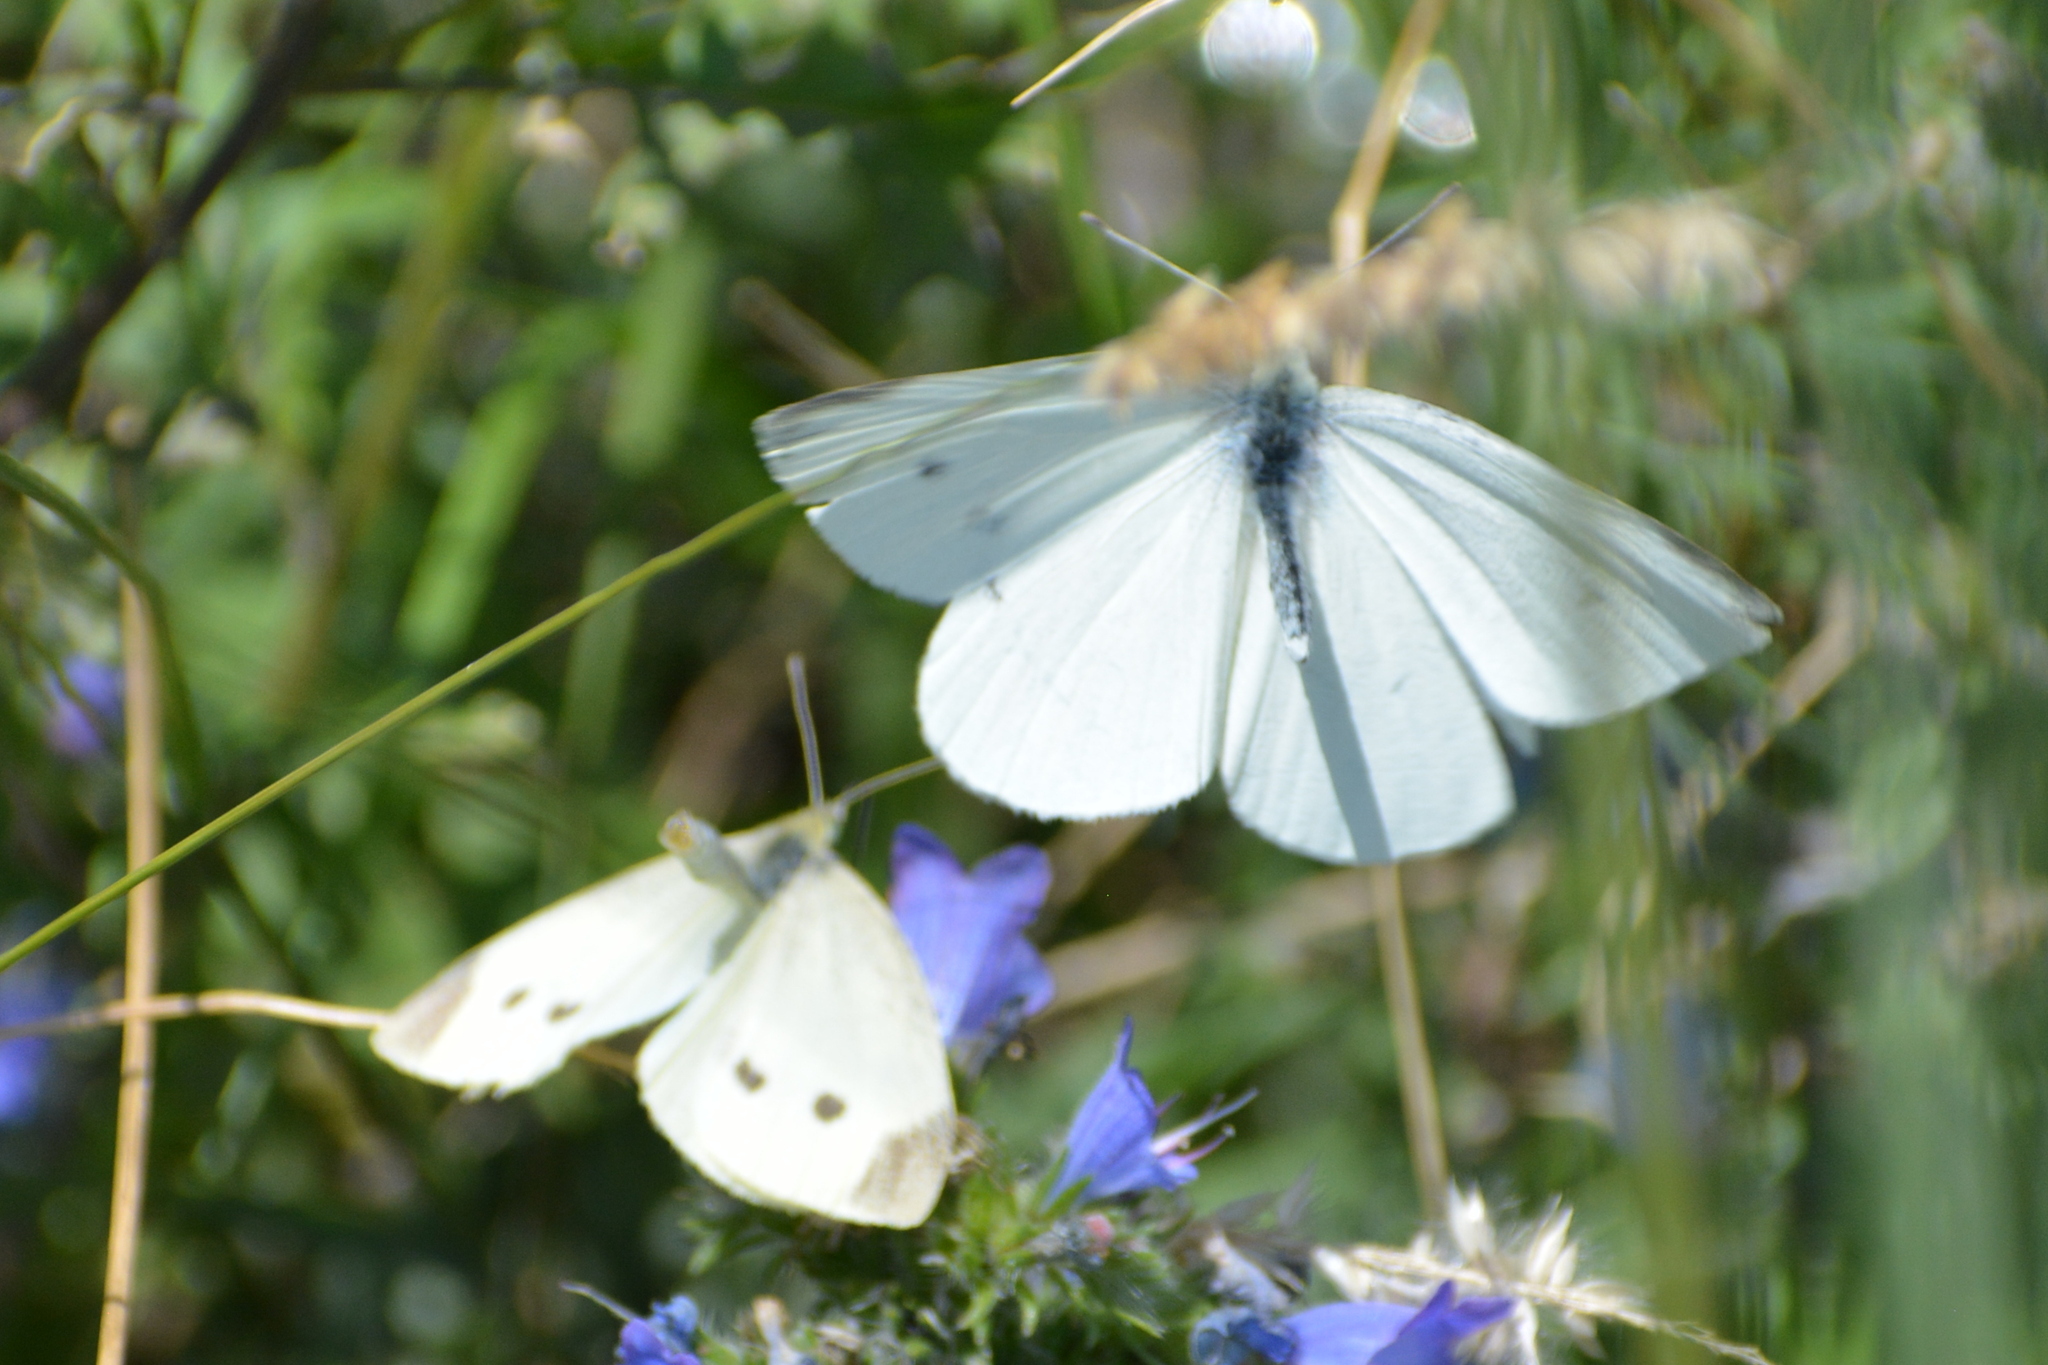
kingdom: Animalia
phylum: Arthropoda
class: Insecta
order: Lepidoptera
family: Pieridae
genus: Pieris
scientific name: Pieris rapae
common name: Small white
